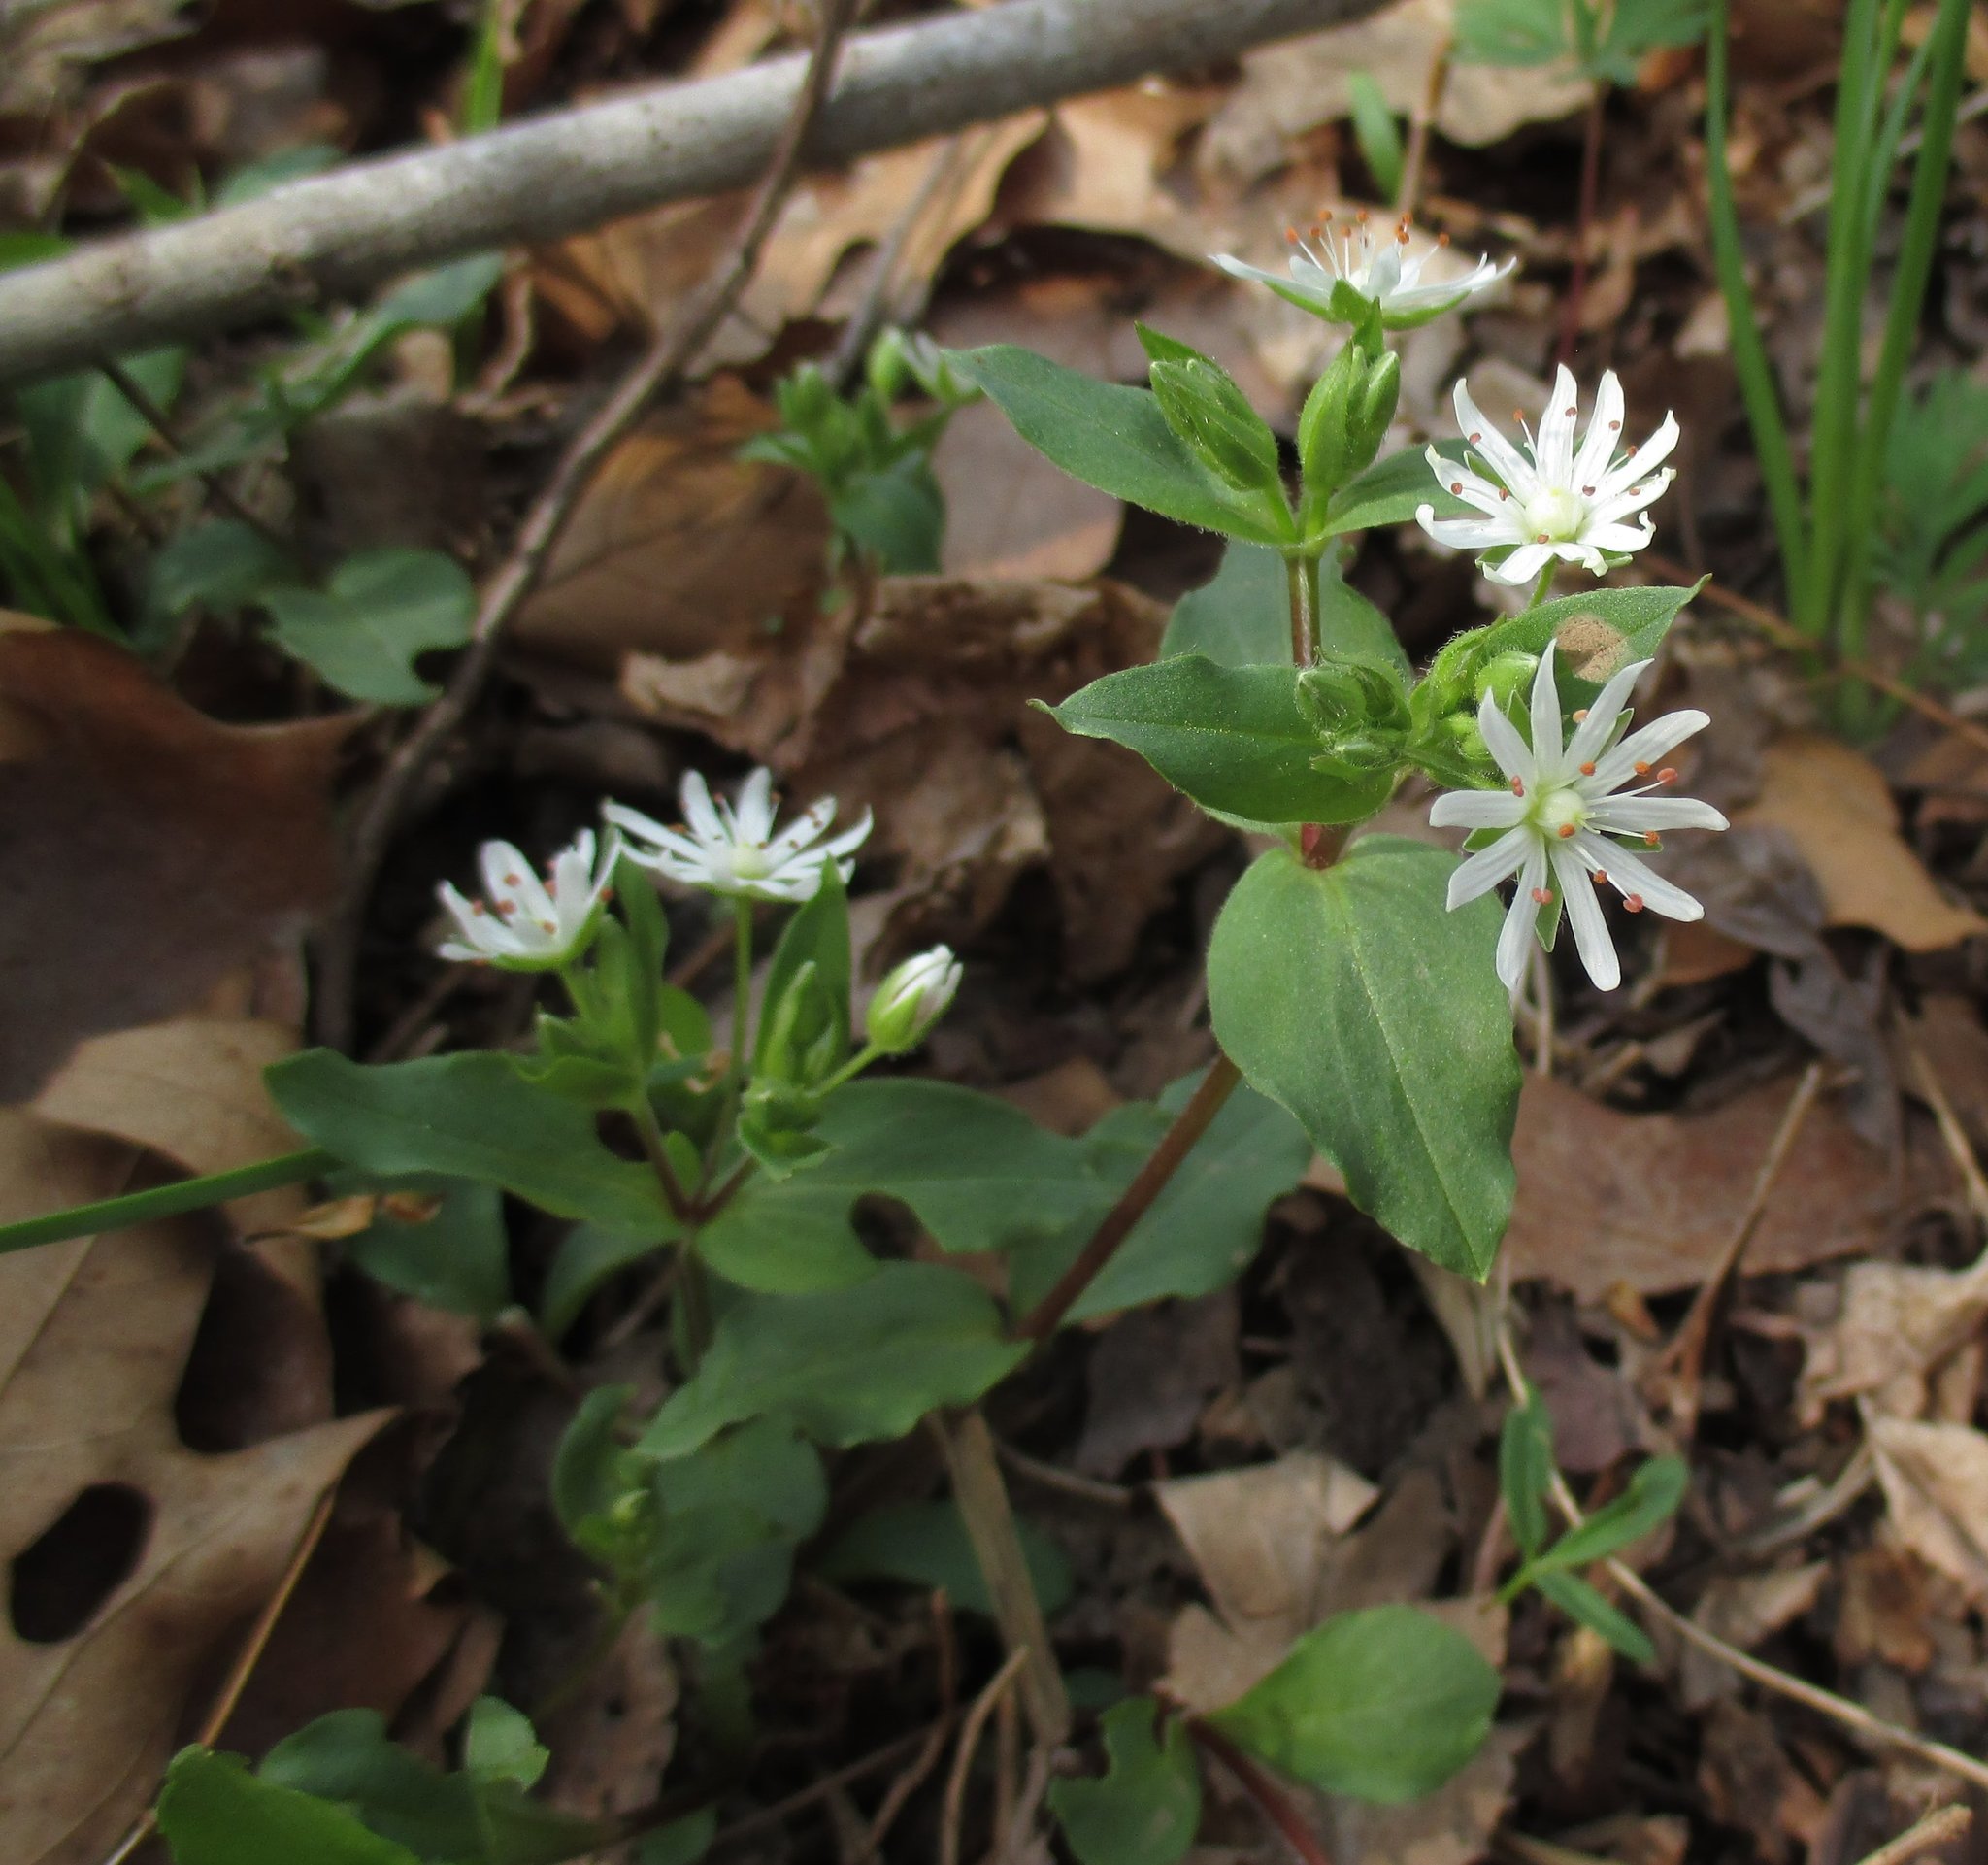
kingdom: Plantae
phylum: Tracheophyta
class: Magnoliopsida
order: Caryophyllales
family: Caryophyllaceae
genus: Stellaria
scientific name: Stellaria pubera
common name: Star chickweed
